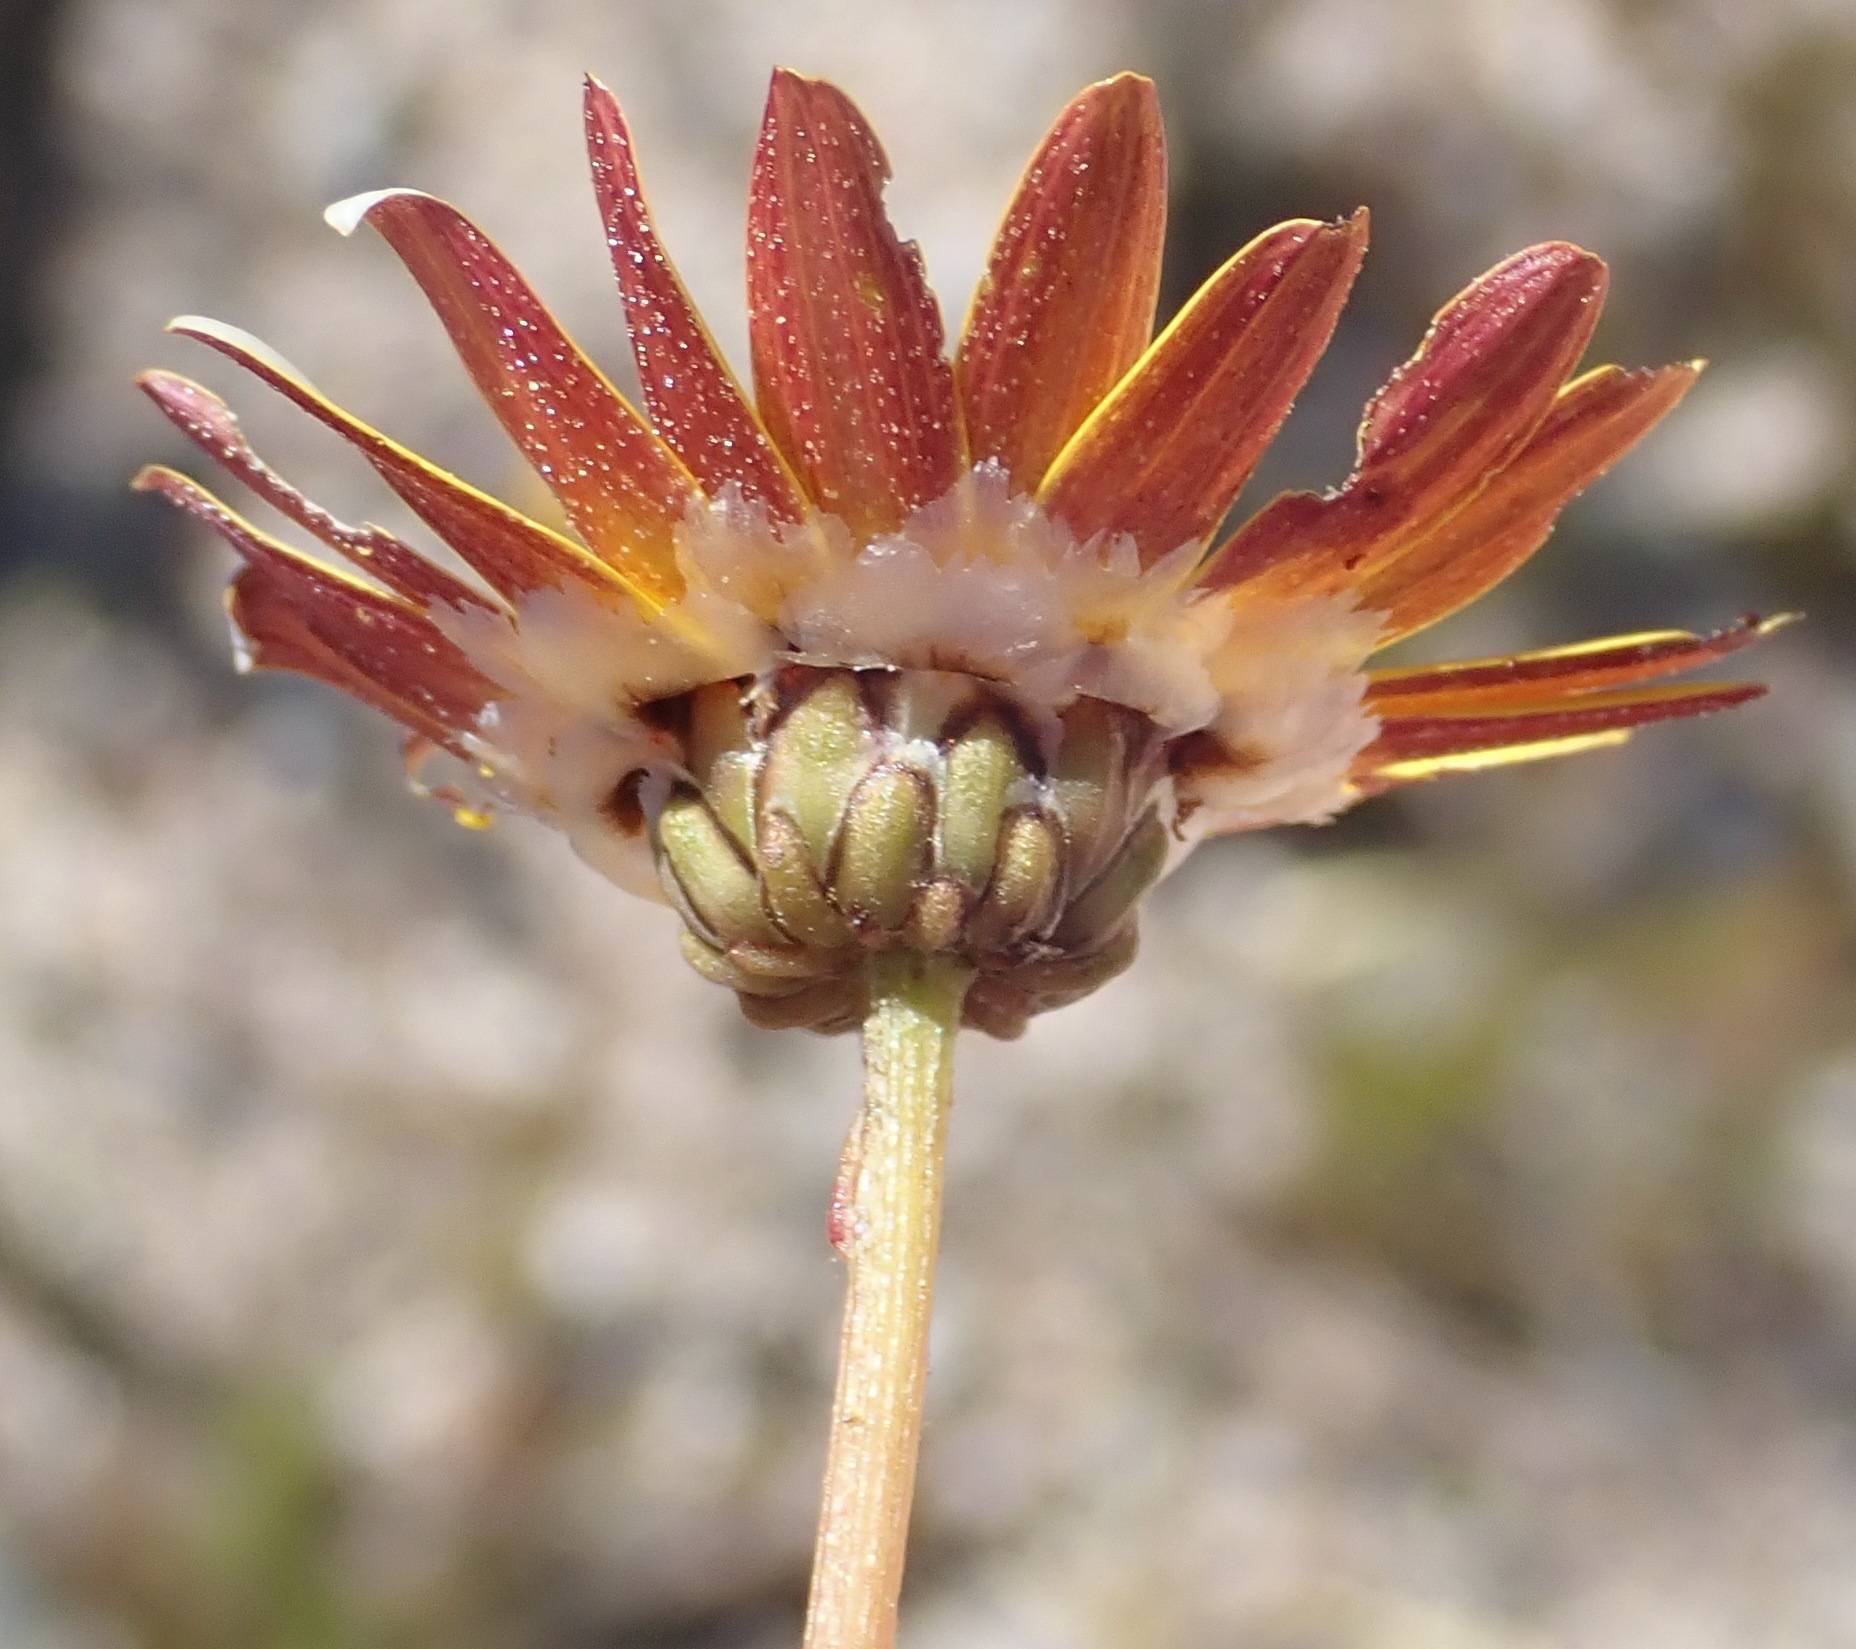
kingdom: Plantae
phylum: Tracheophyta
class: Magnoliopsida
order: Asterales
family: Asteraceae
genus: Ursinia
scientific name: Ursinia rigidula
